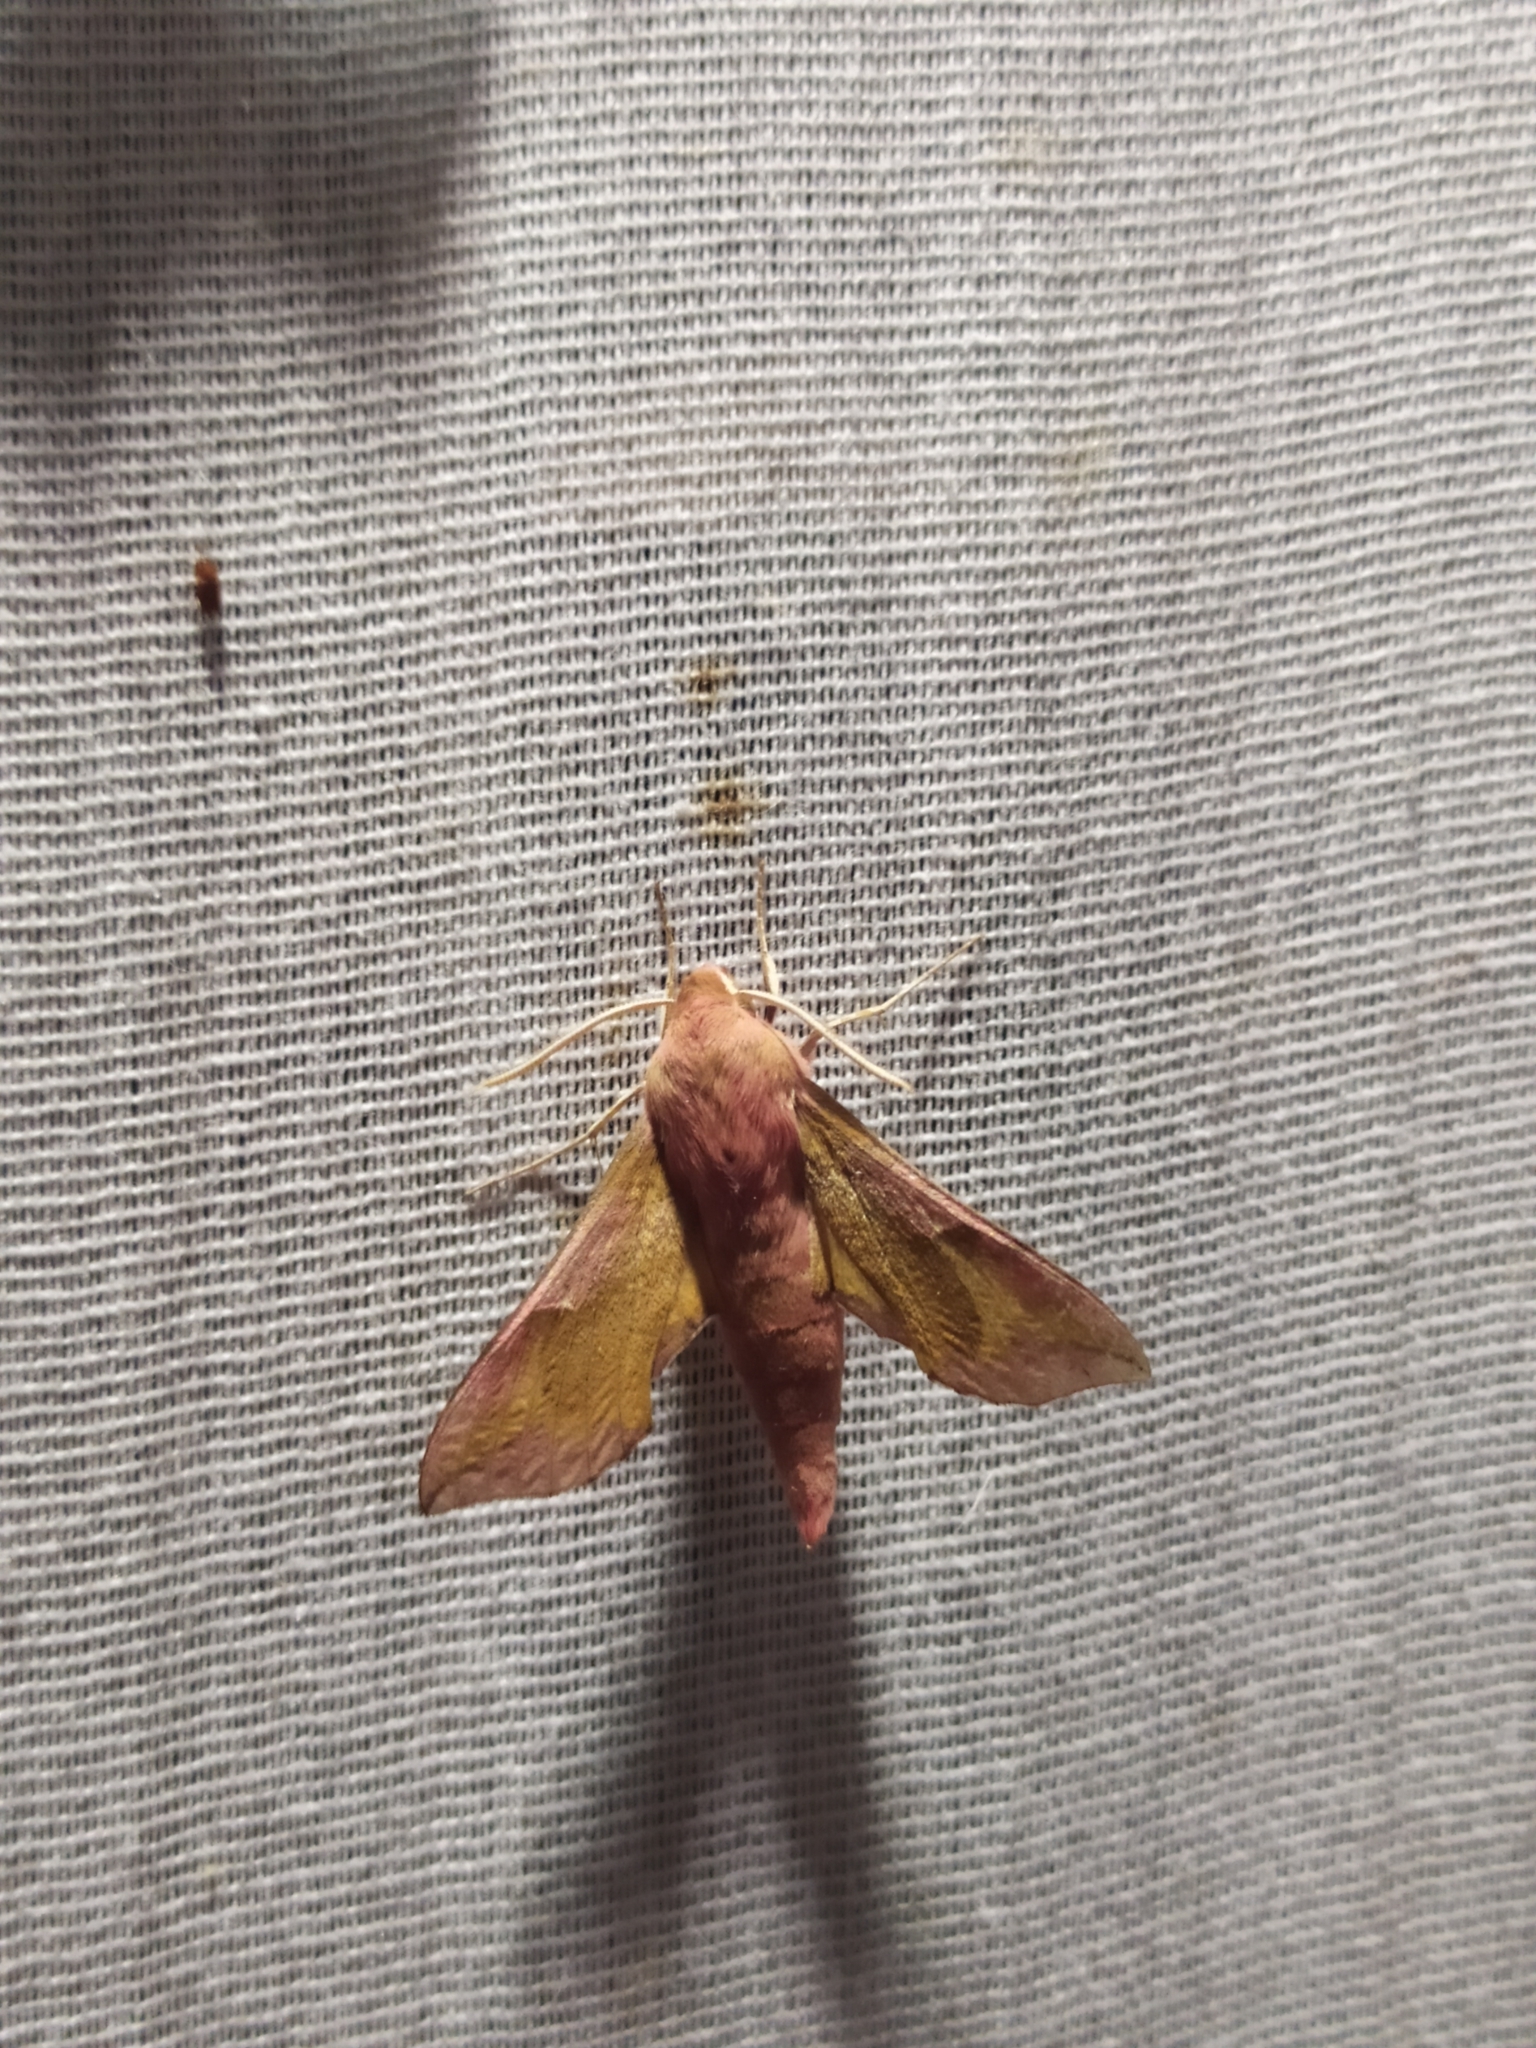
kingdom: Animalia
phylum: Arthropoda
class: Insecta
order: Lepidoptera
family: Sphingidae
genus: Deilephila
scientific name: Deilephila porcellus
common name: Small elephant hawk-moth
